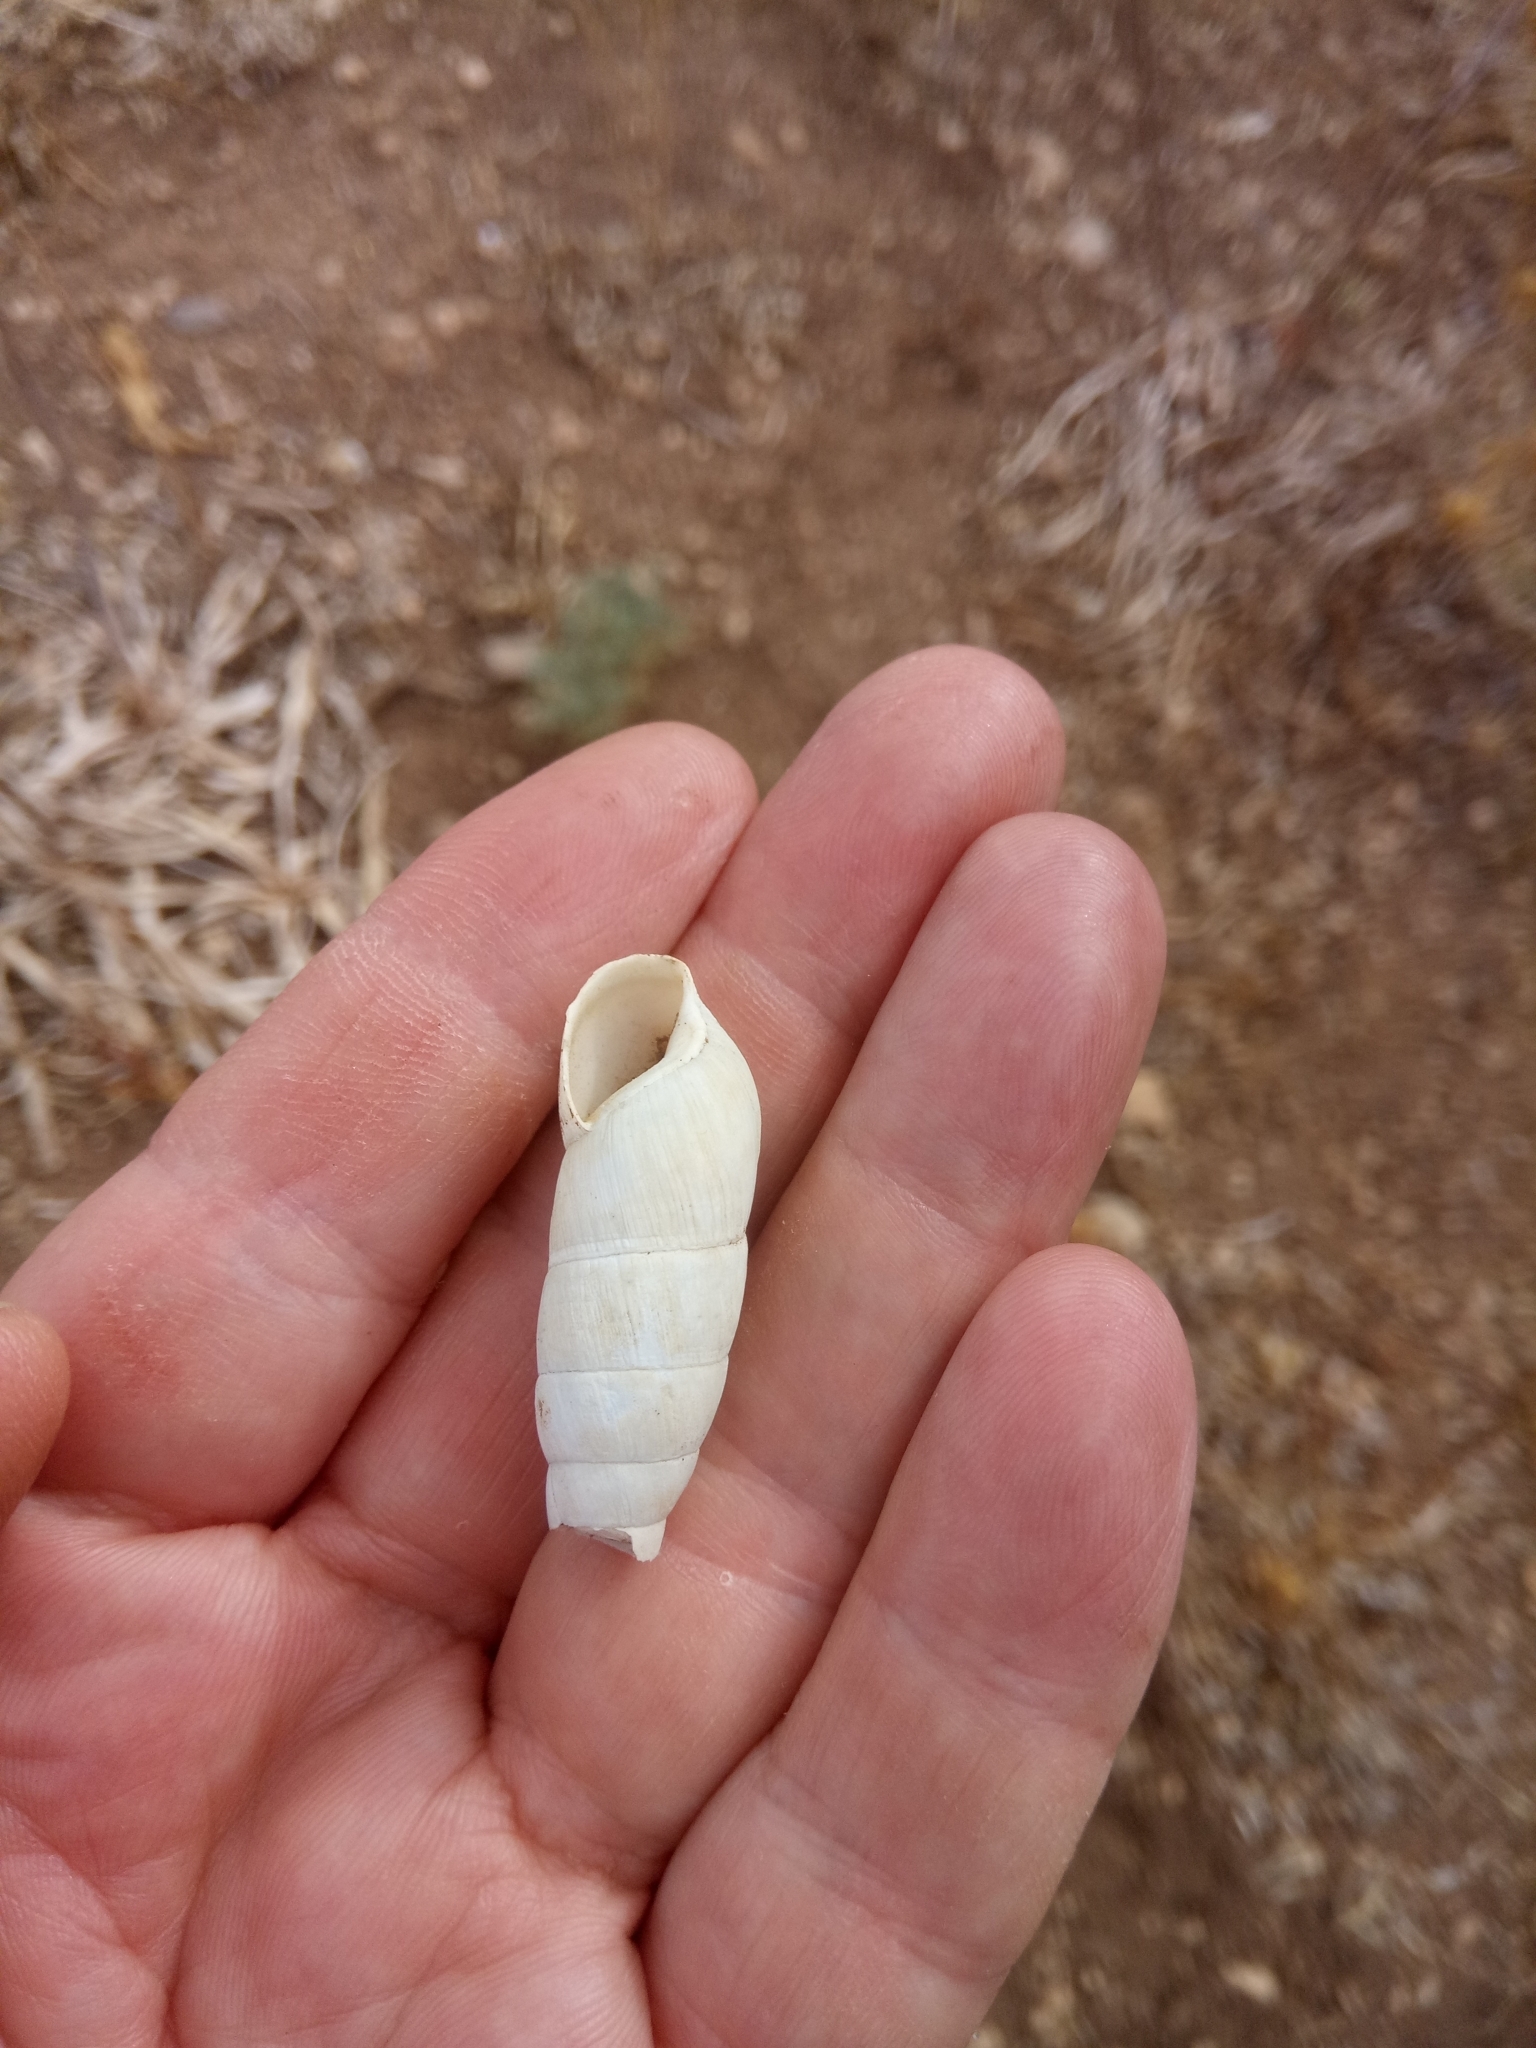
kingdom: Animalia
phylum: Mollusca
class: Gastropoda
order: Stylommatophora
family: Achatinidae
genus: Rumina
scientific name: Rumina decollata
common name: Decollate snail
